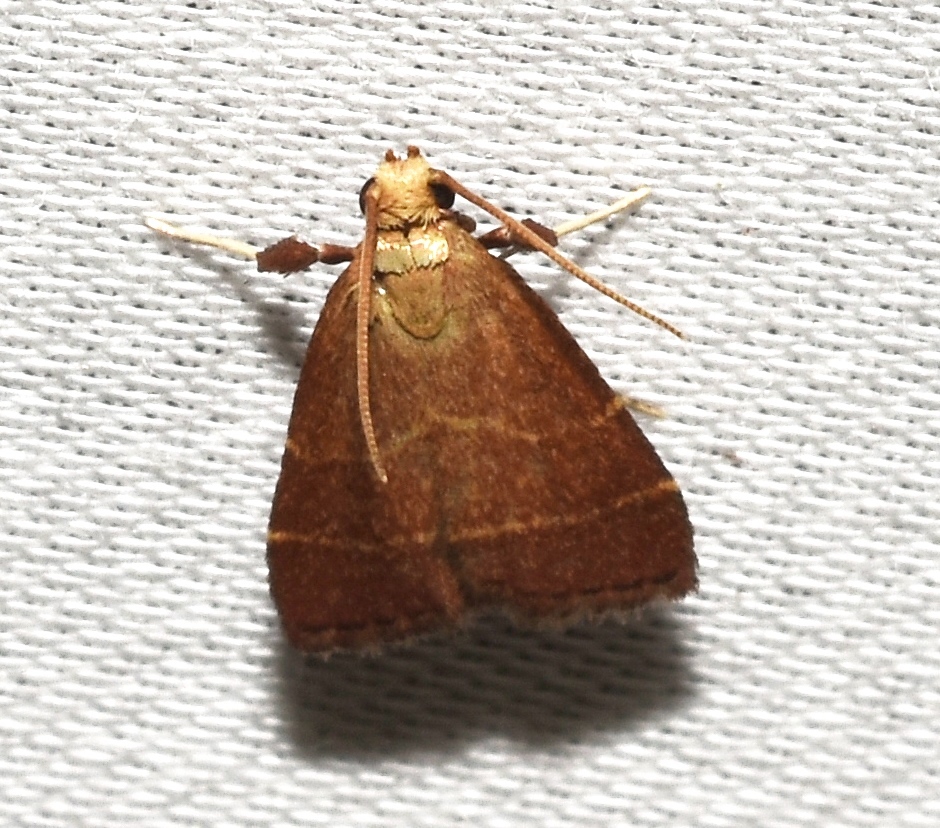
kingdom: Animalia
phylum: Arthropoda
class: Insecta
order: Lepidoptera
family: Pyralidae
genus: Arta
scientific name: Arta statalis
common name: Posturing arta moth
